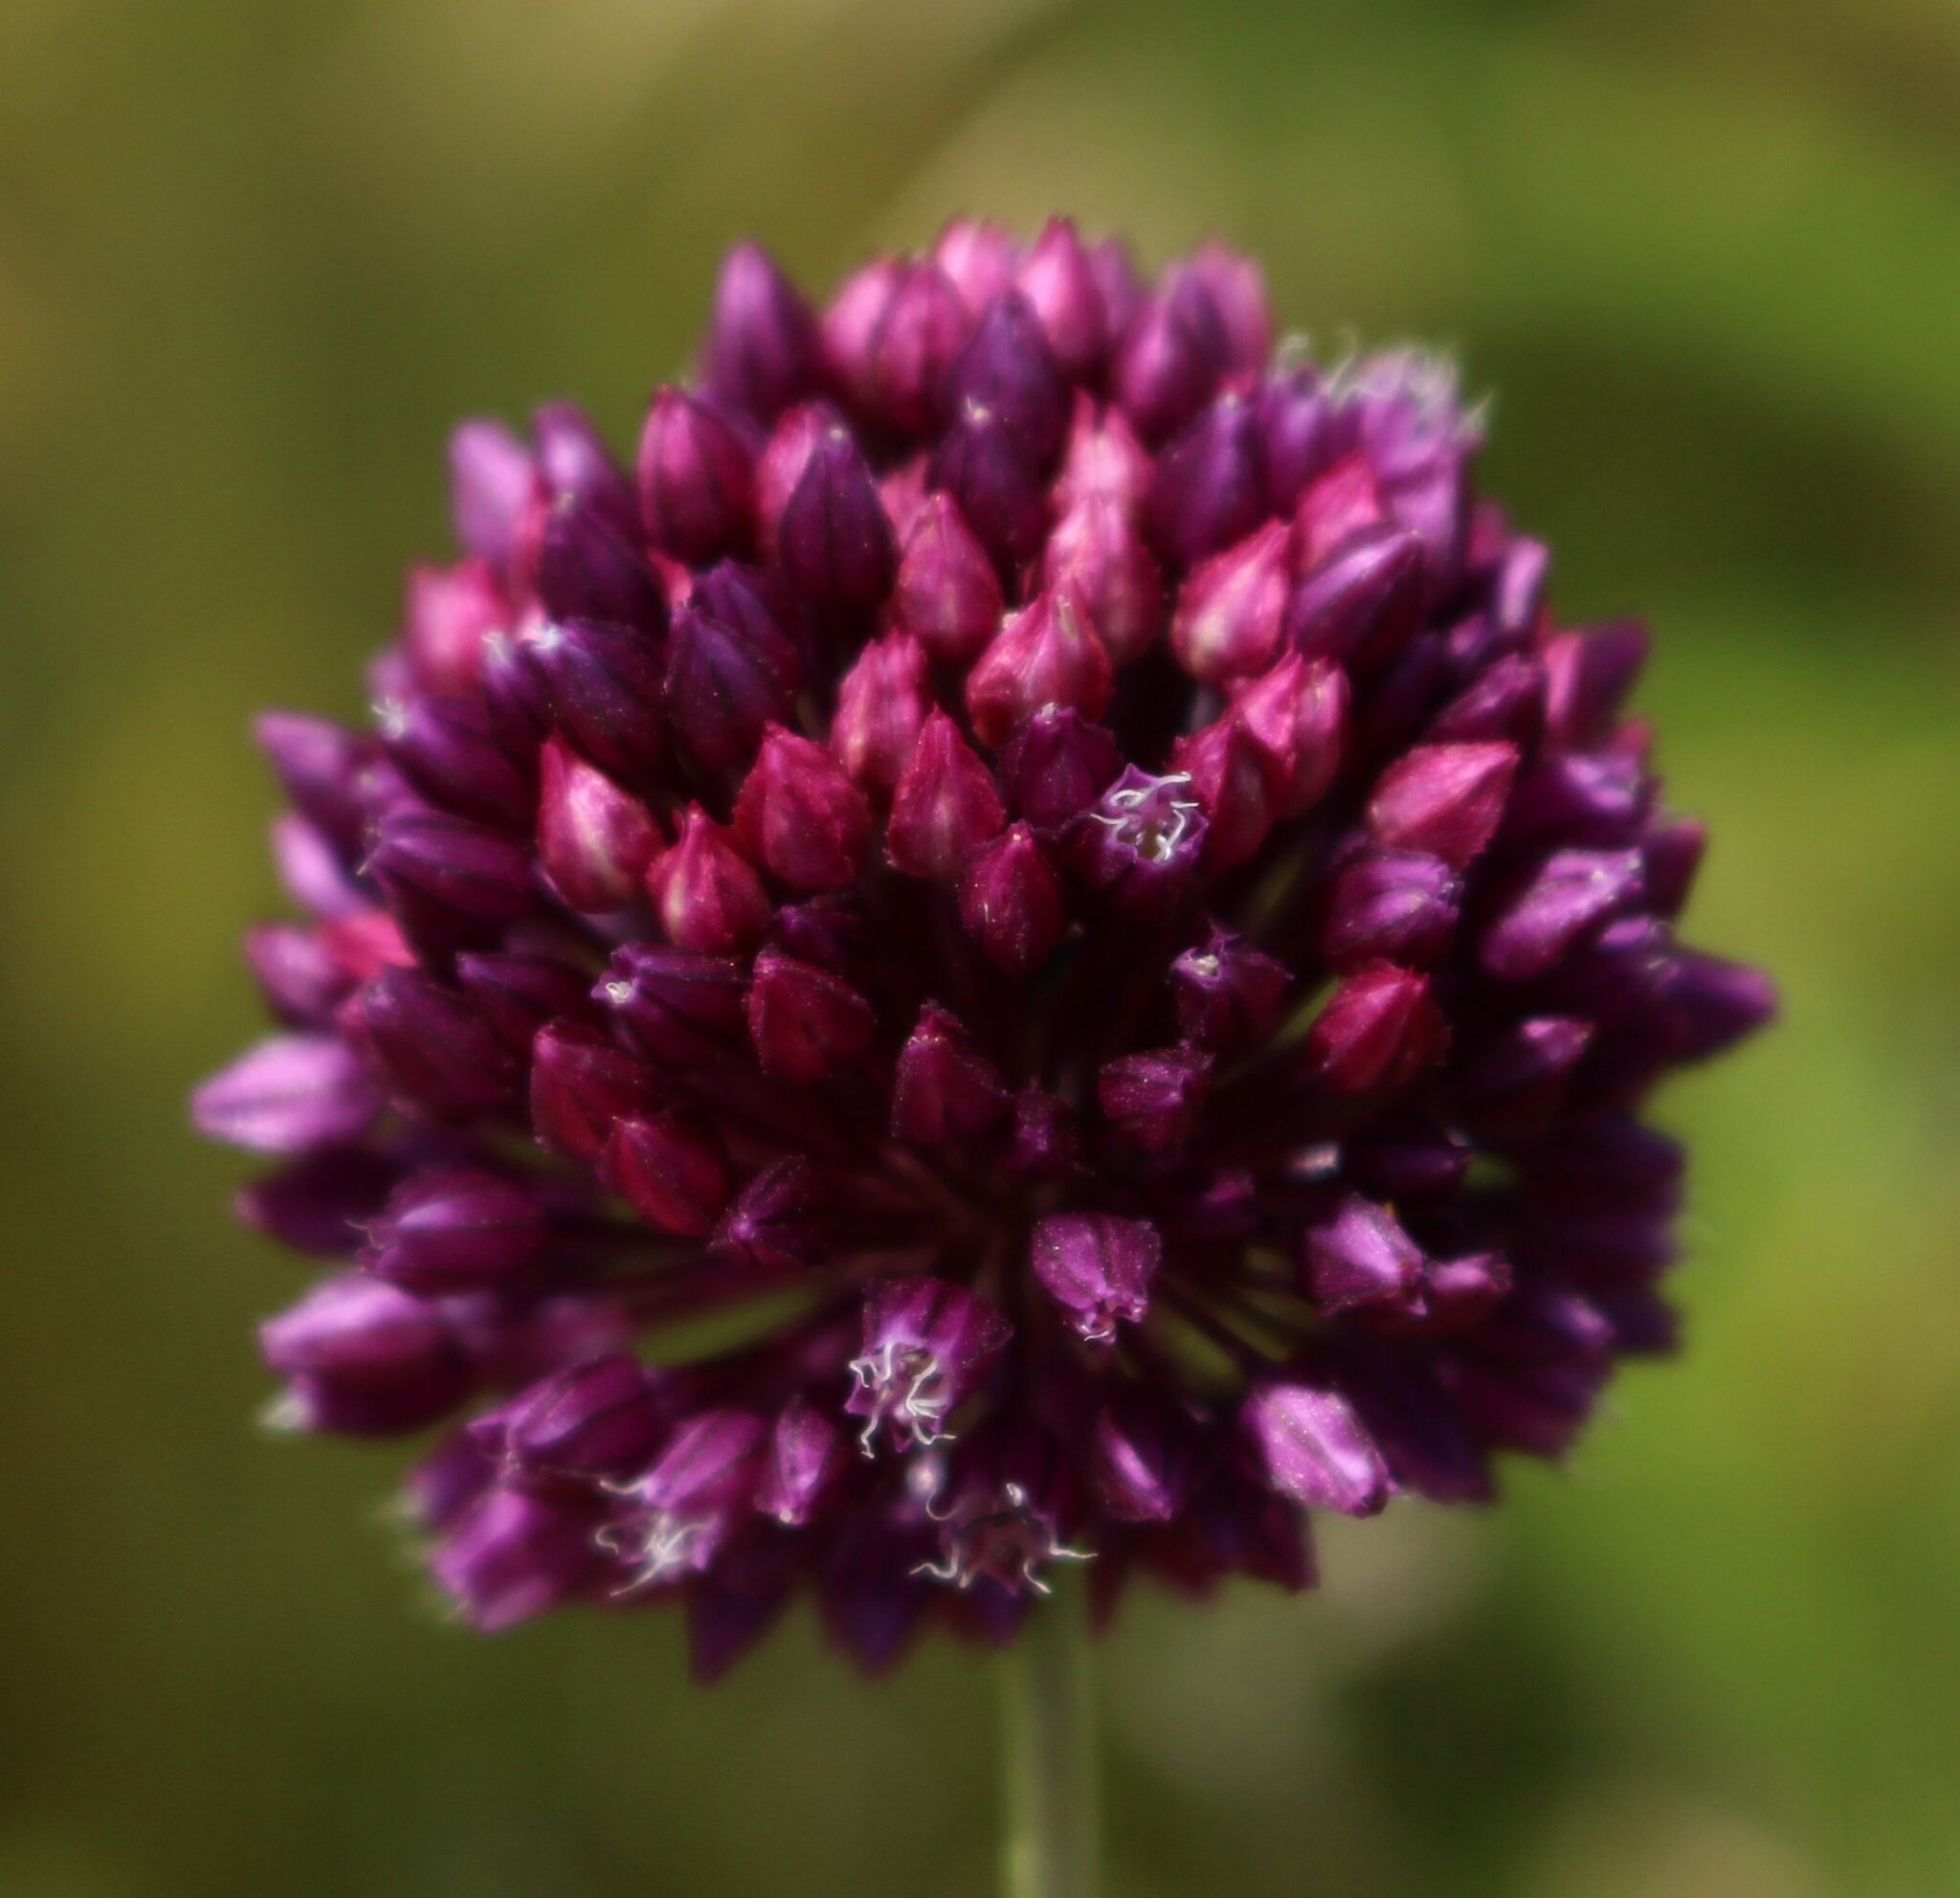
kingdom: Plantae
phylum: Tracheophyta
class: Liliopsida
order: Asparagales
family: Amaryllidaceae
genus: Allium
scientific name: Allium rotundum
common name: Sand leek
